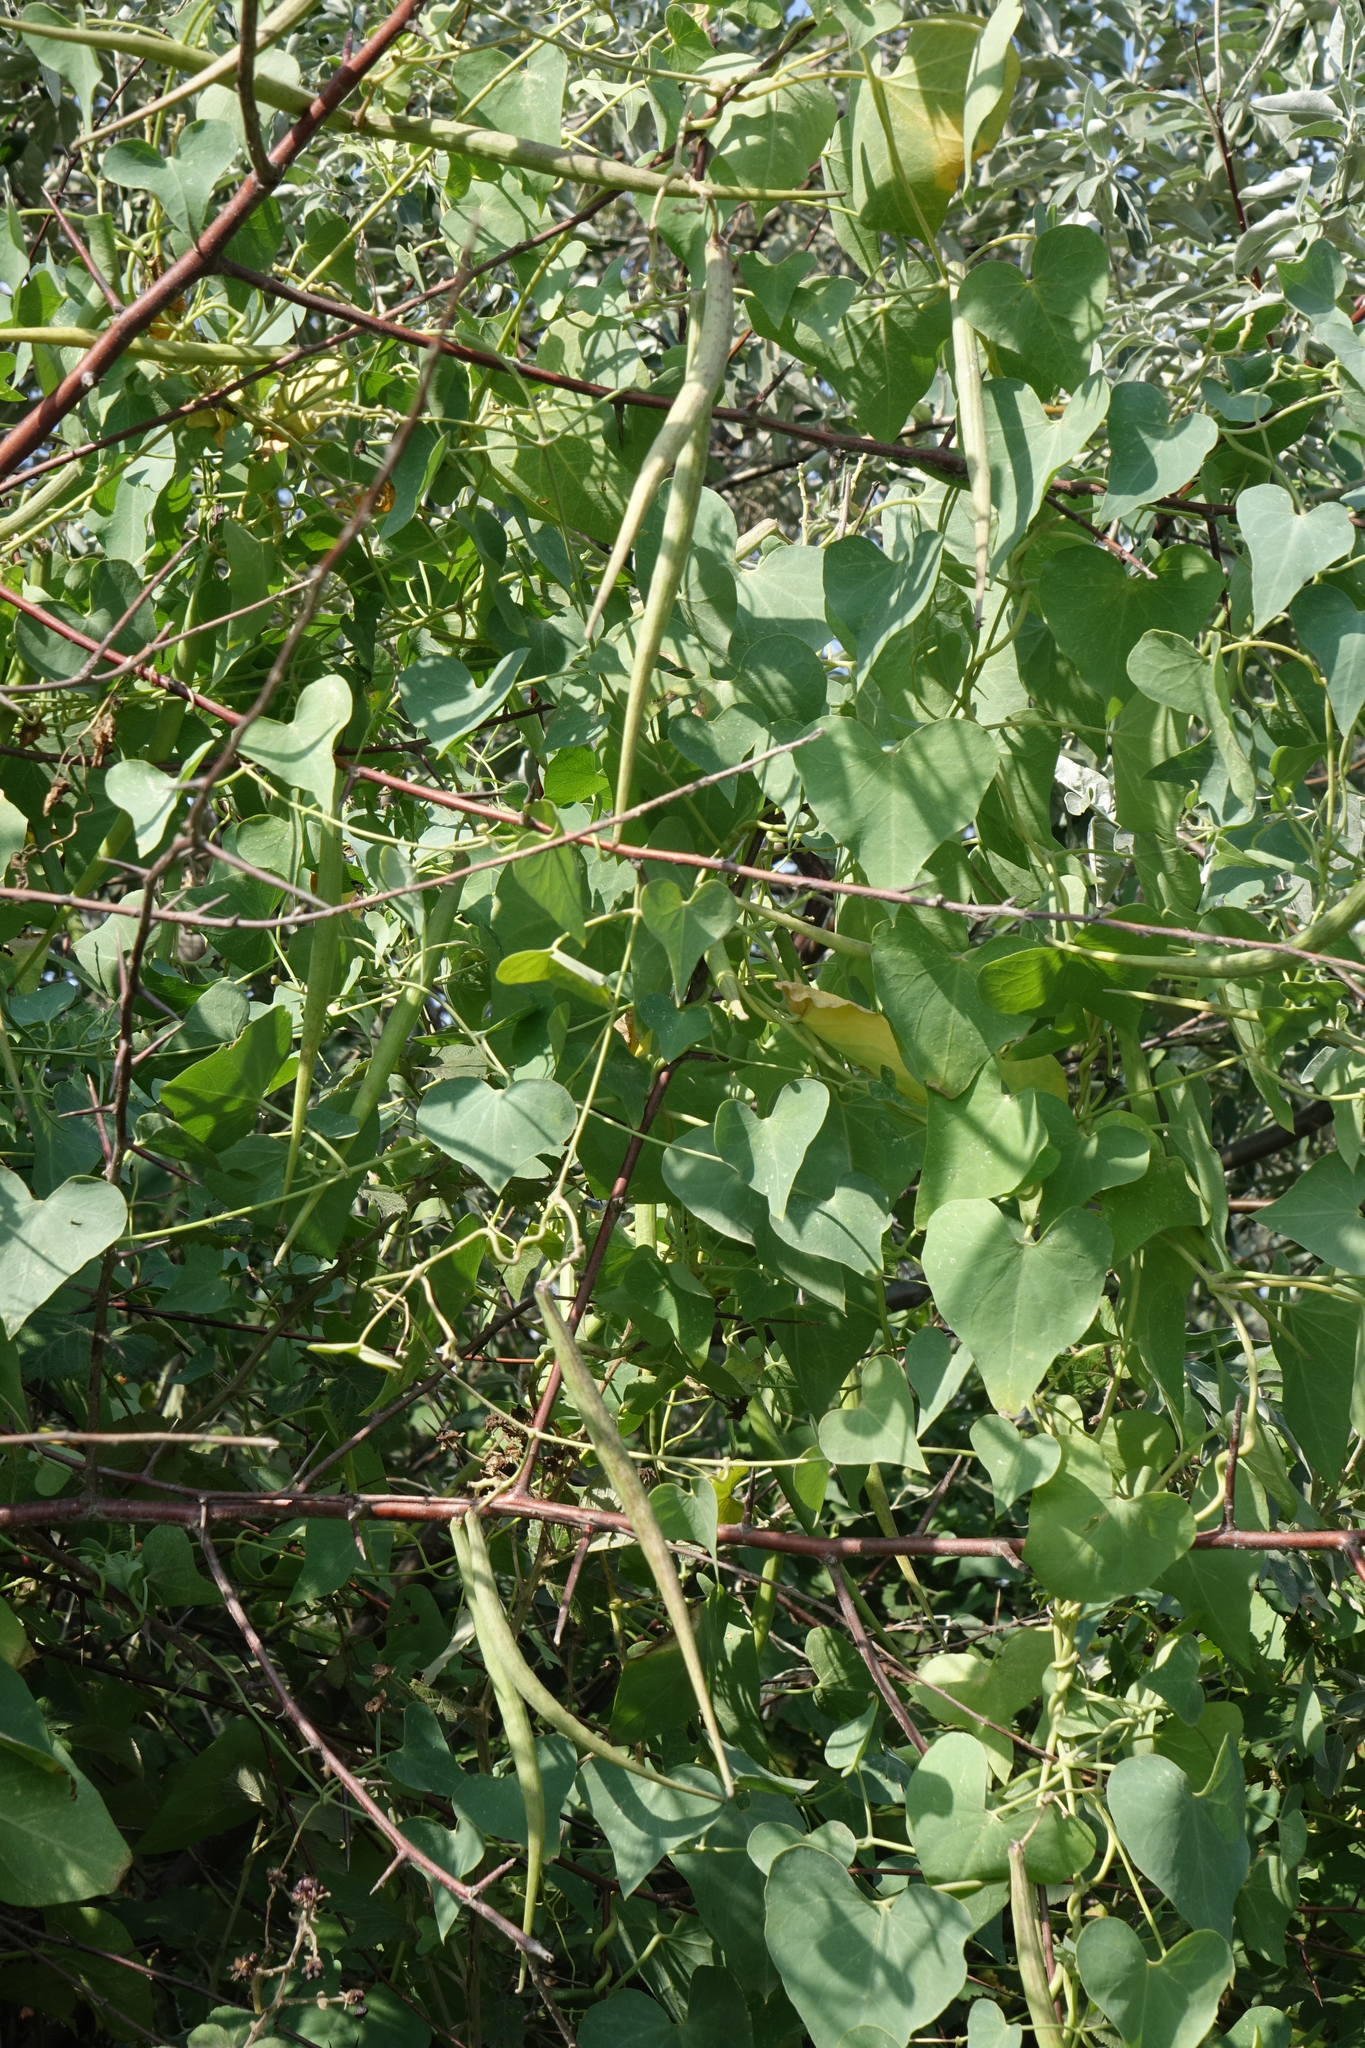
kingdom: Plantae
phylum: Tracheophyta
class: Magnoliopsida
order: Gentianales
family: Apocynaceae
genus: Cynanchum
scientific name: Cynanchum acutum
